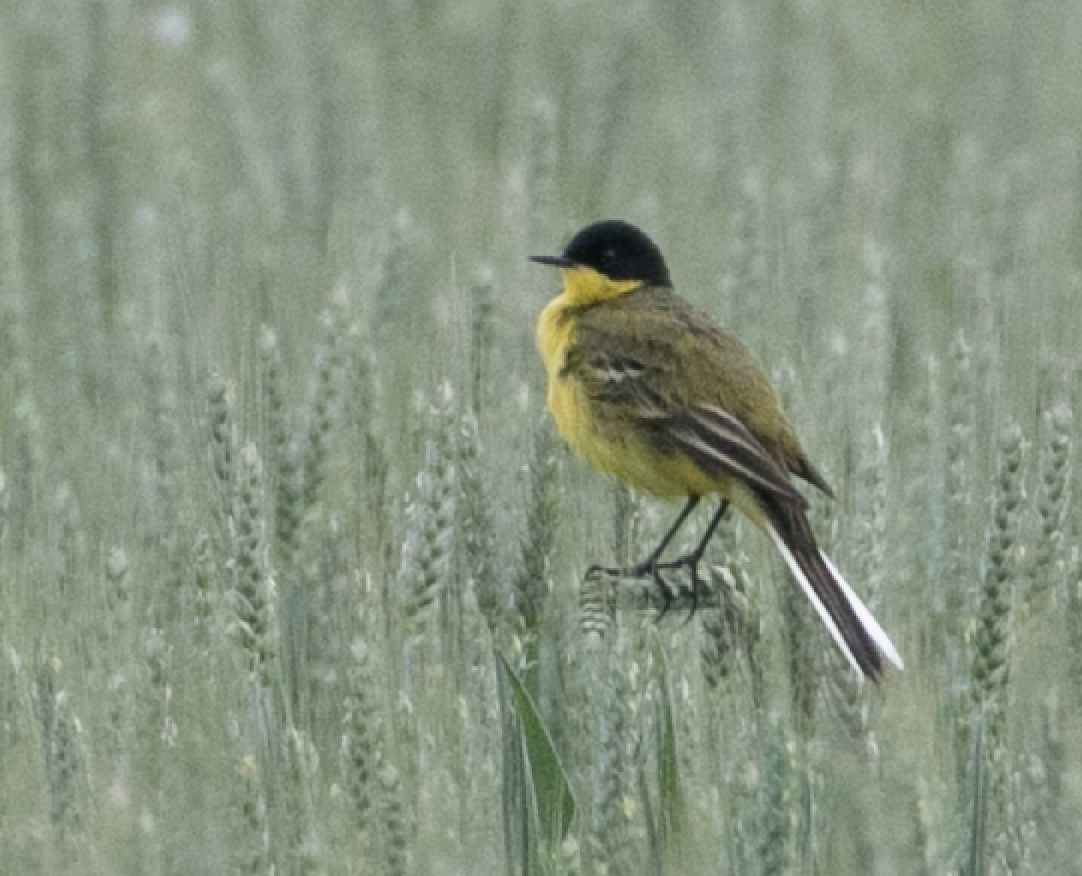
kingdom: Animalia
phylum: Chordata
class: Aves
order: Passeriformes
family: Motacillidae
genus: Motacilla
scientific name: Motacilla flava
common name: Western yellow wagtail
